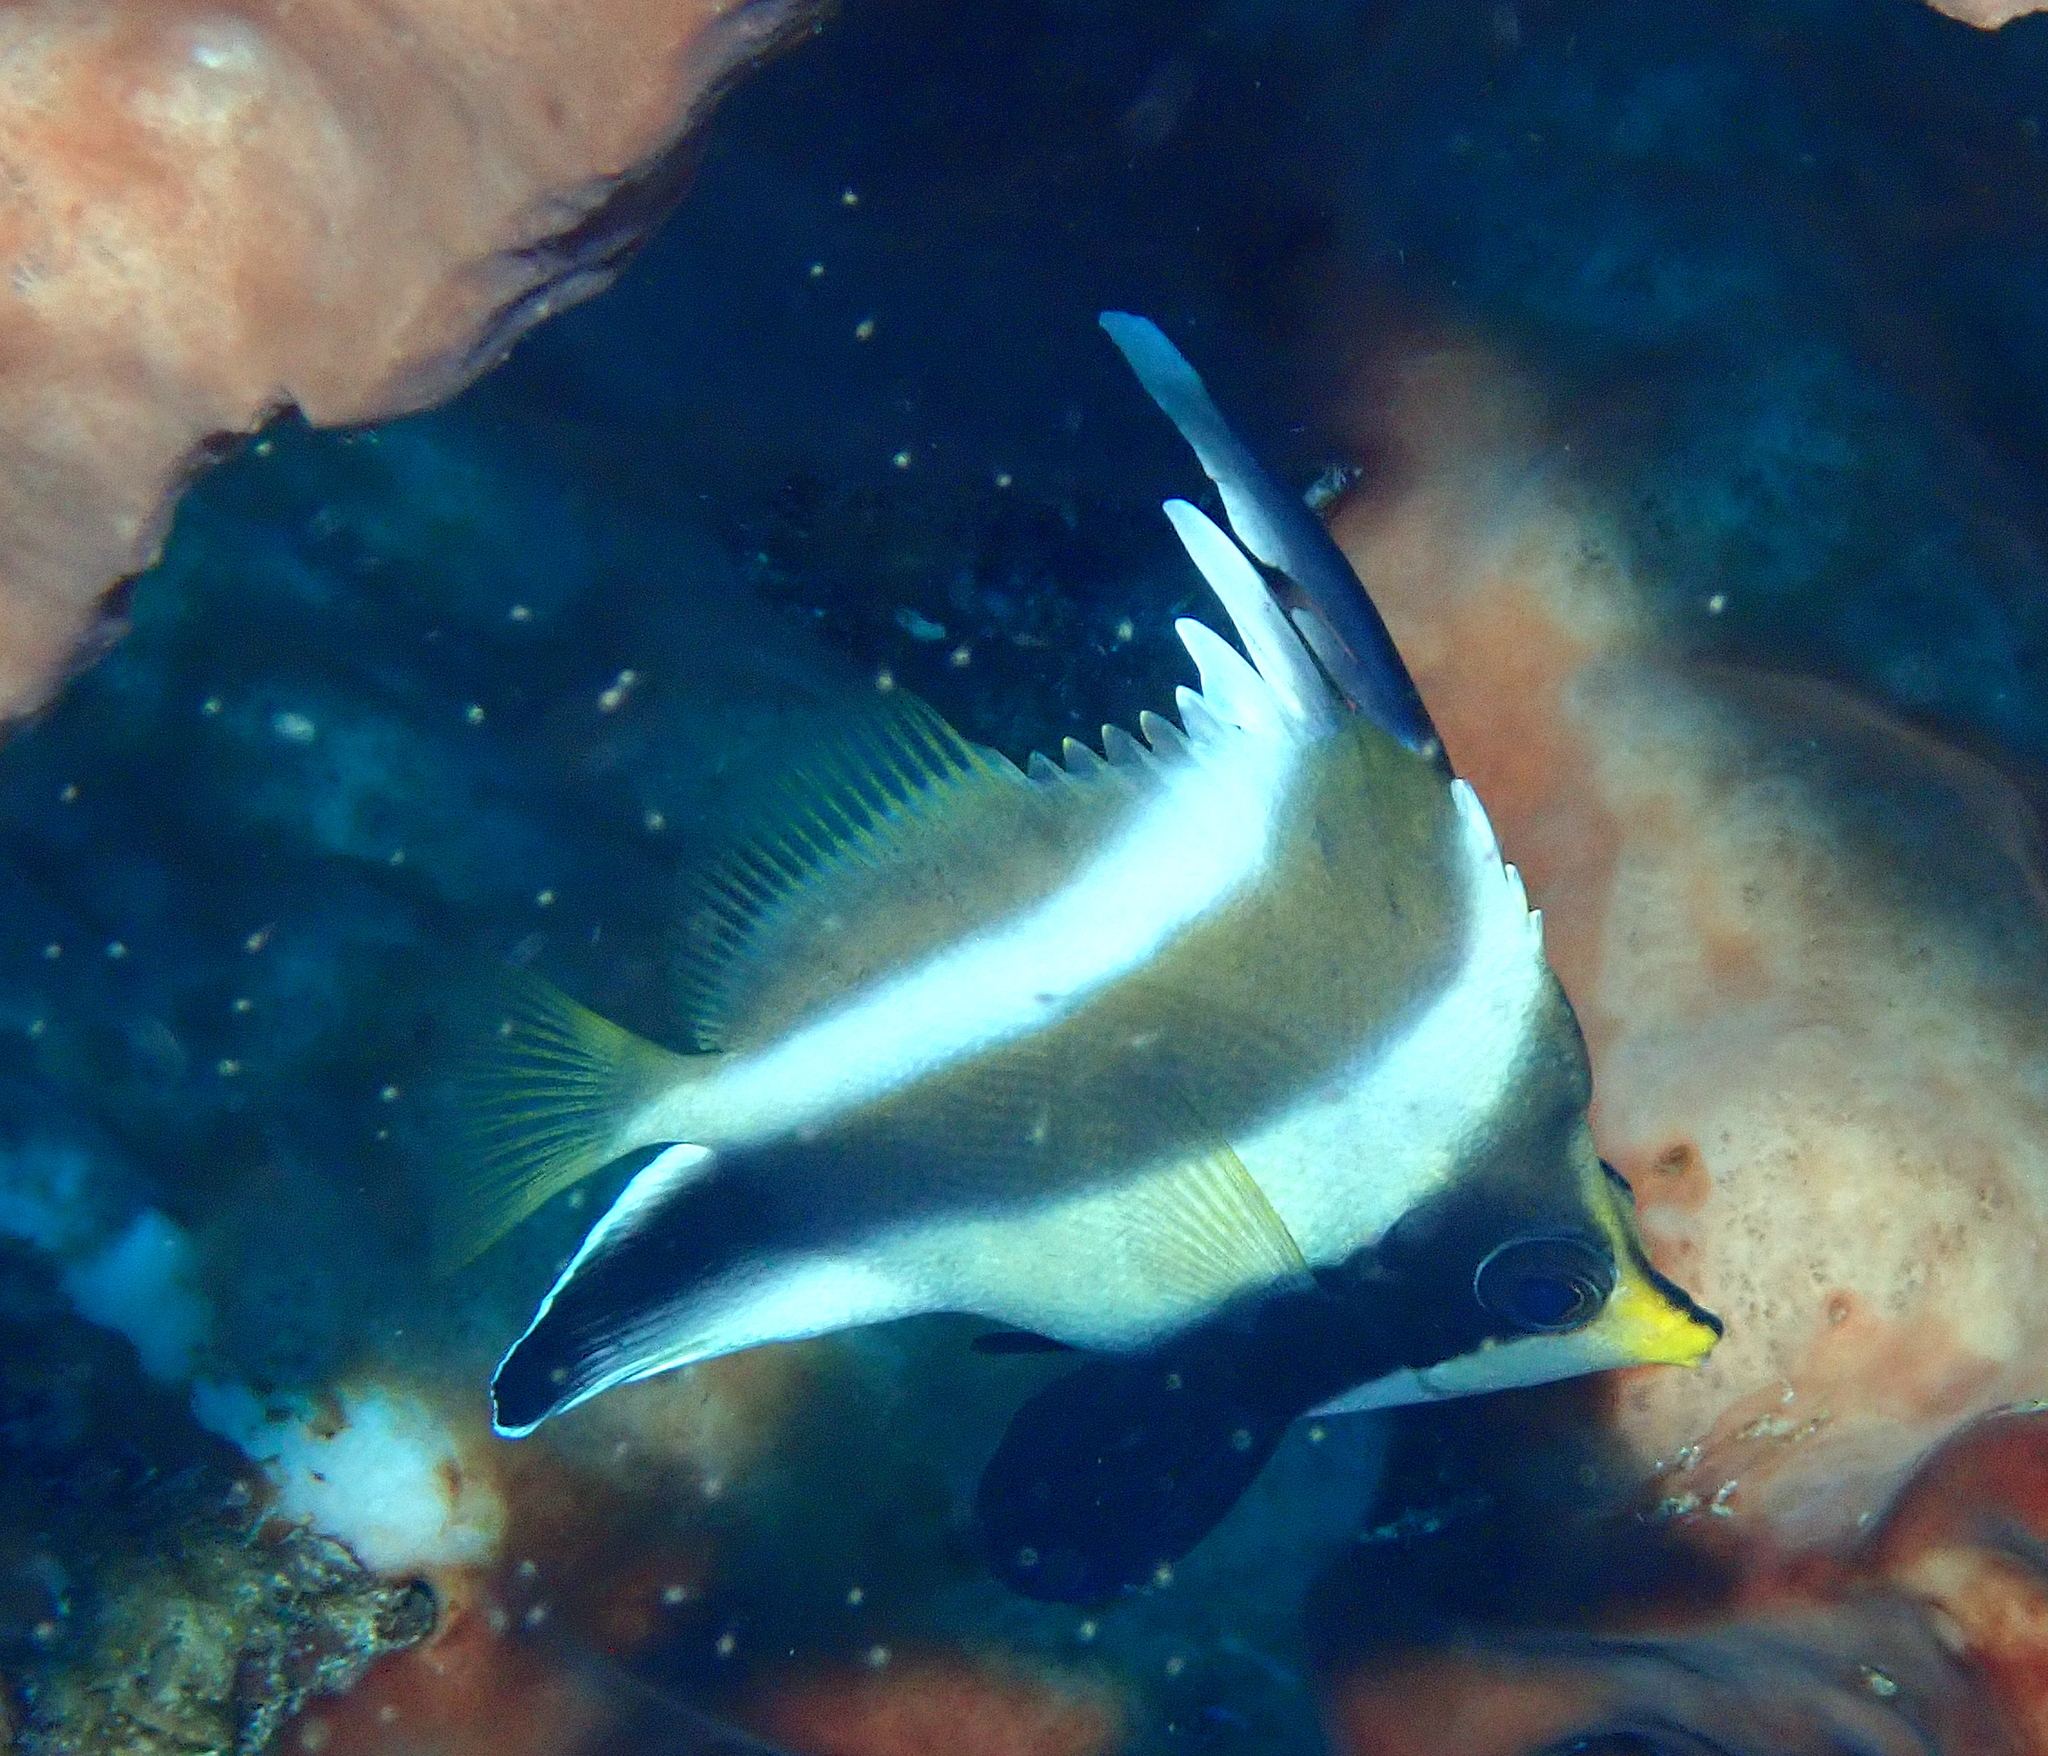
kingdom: Animalia
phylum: Chordata
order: Perciformes
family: Chaetodontidae
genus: Heniochus
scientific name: Heniochus chrysostomus
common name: Horned bannerfish
